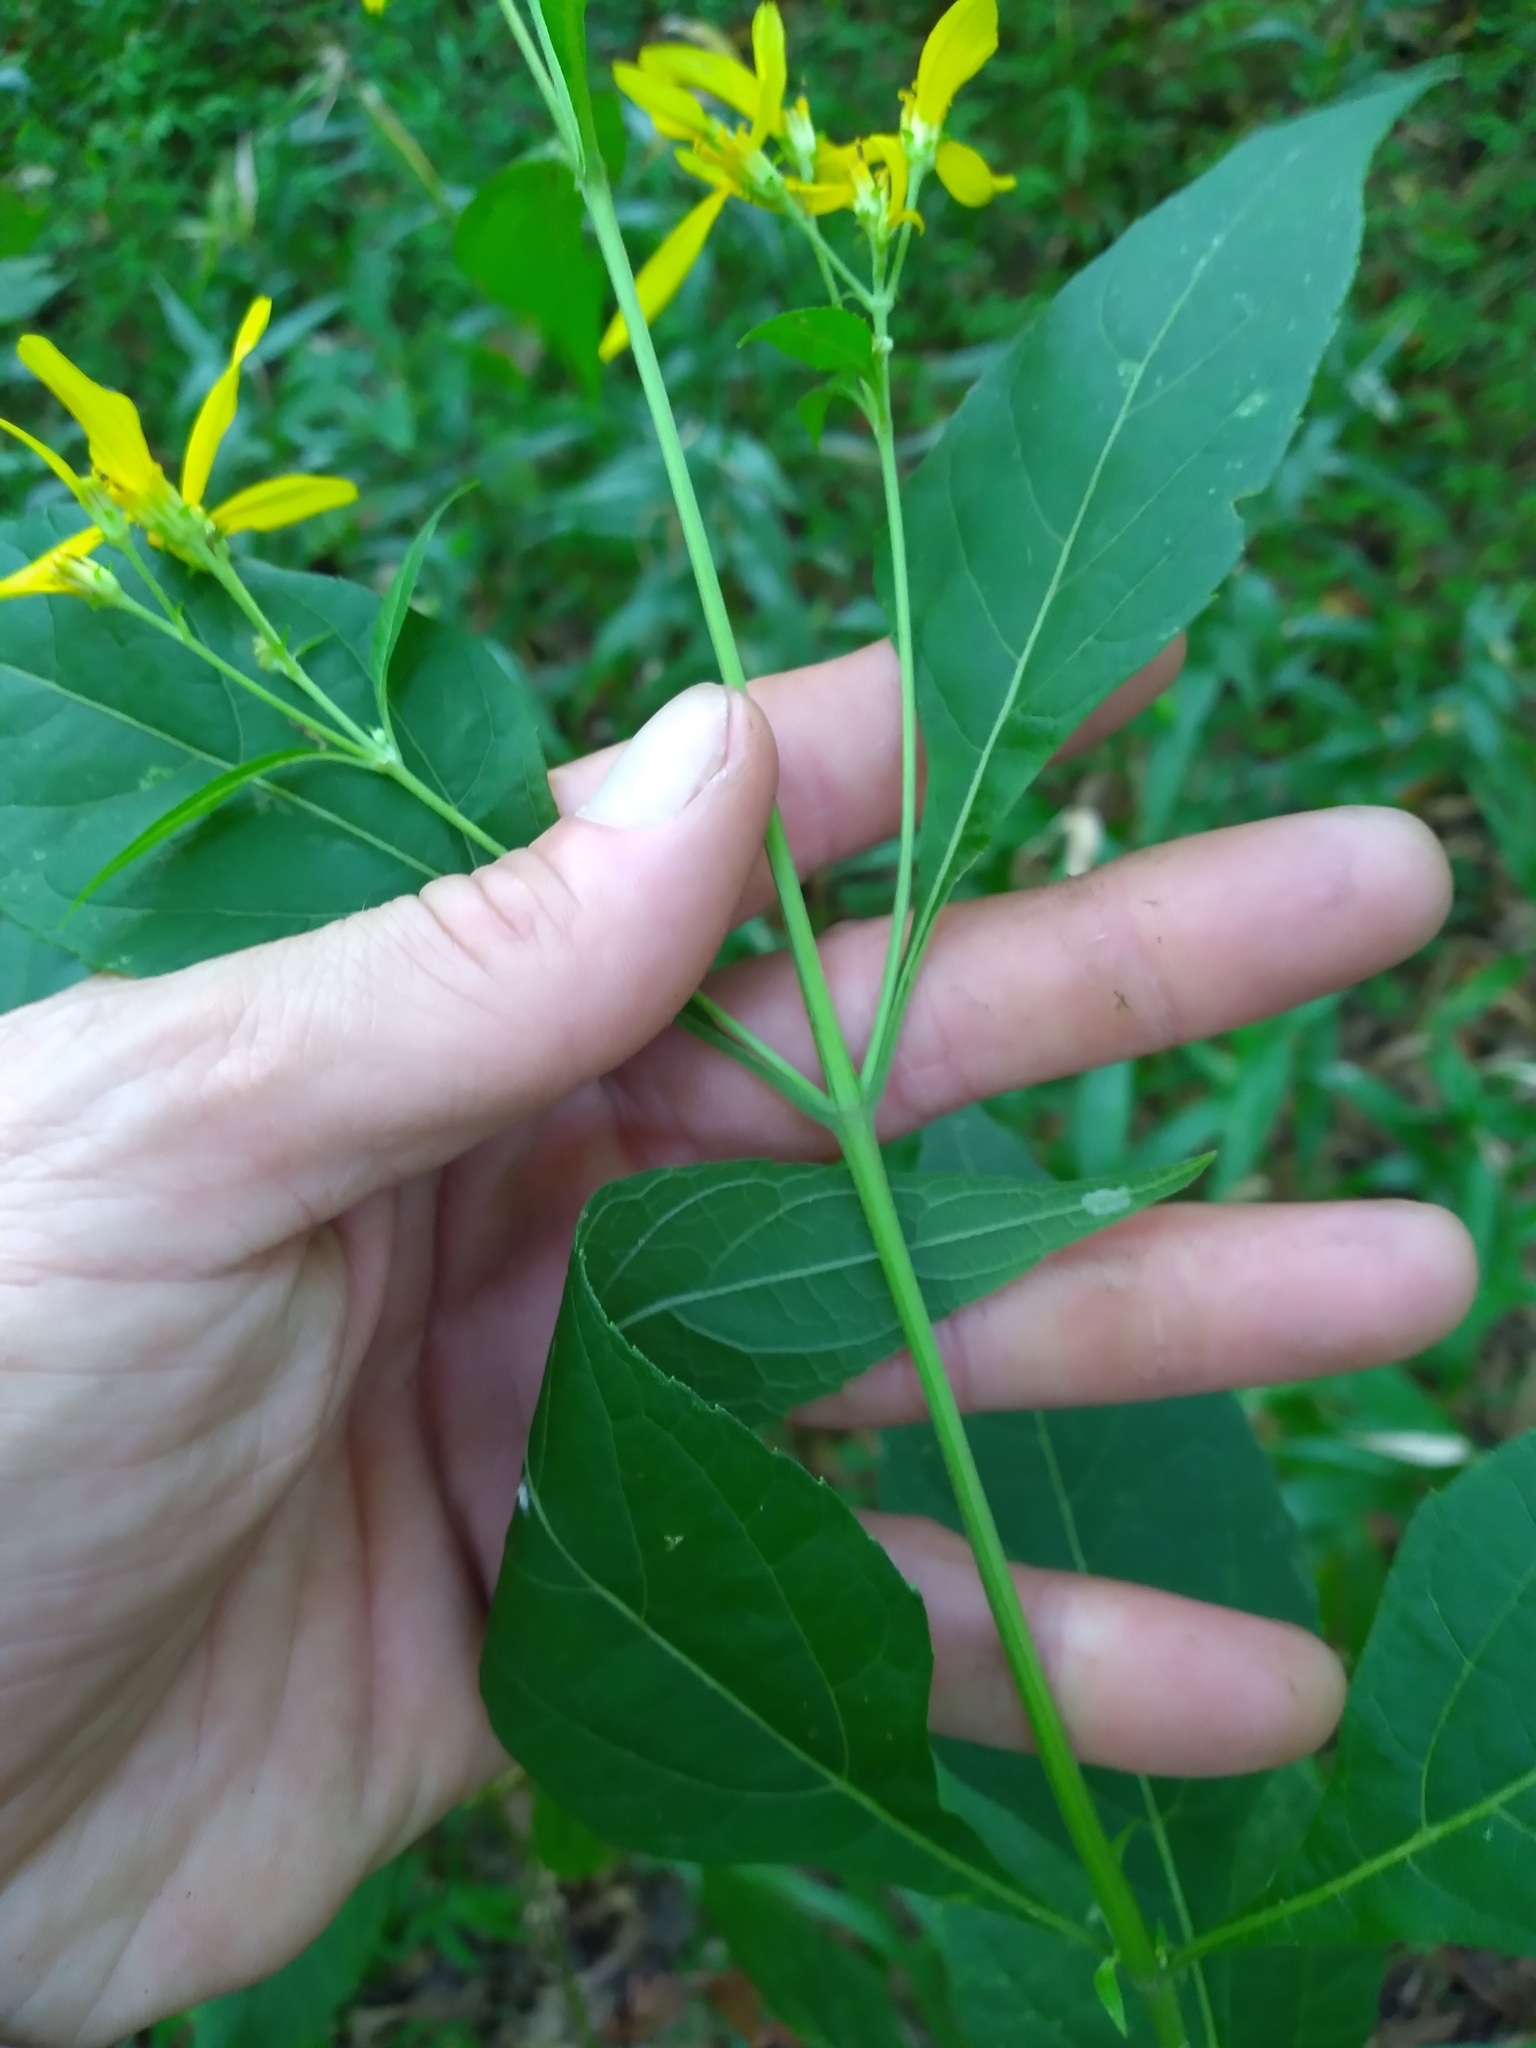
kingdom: Plantae
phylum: Tracheophyta
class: Magnoliopsida
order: Asterales
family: Asteraceae
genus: Verbesina
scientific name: Verbesina occidentalis
